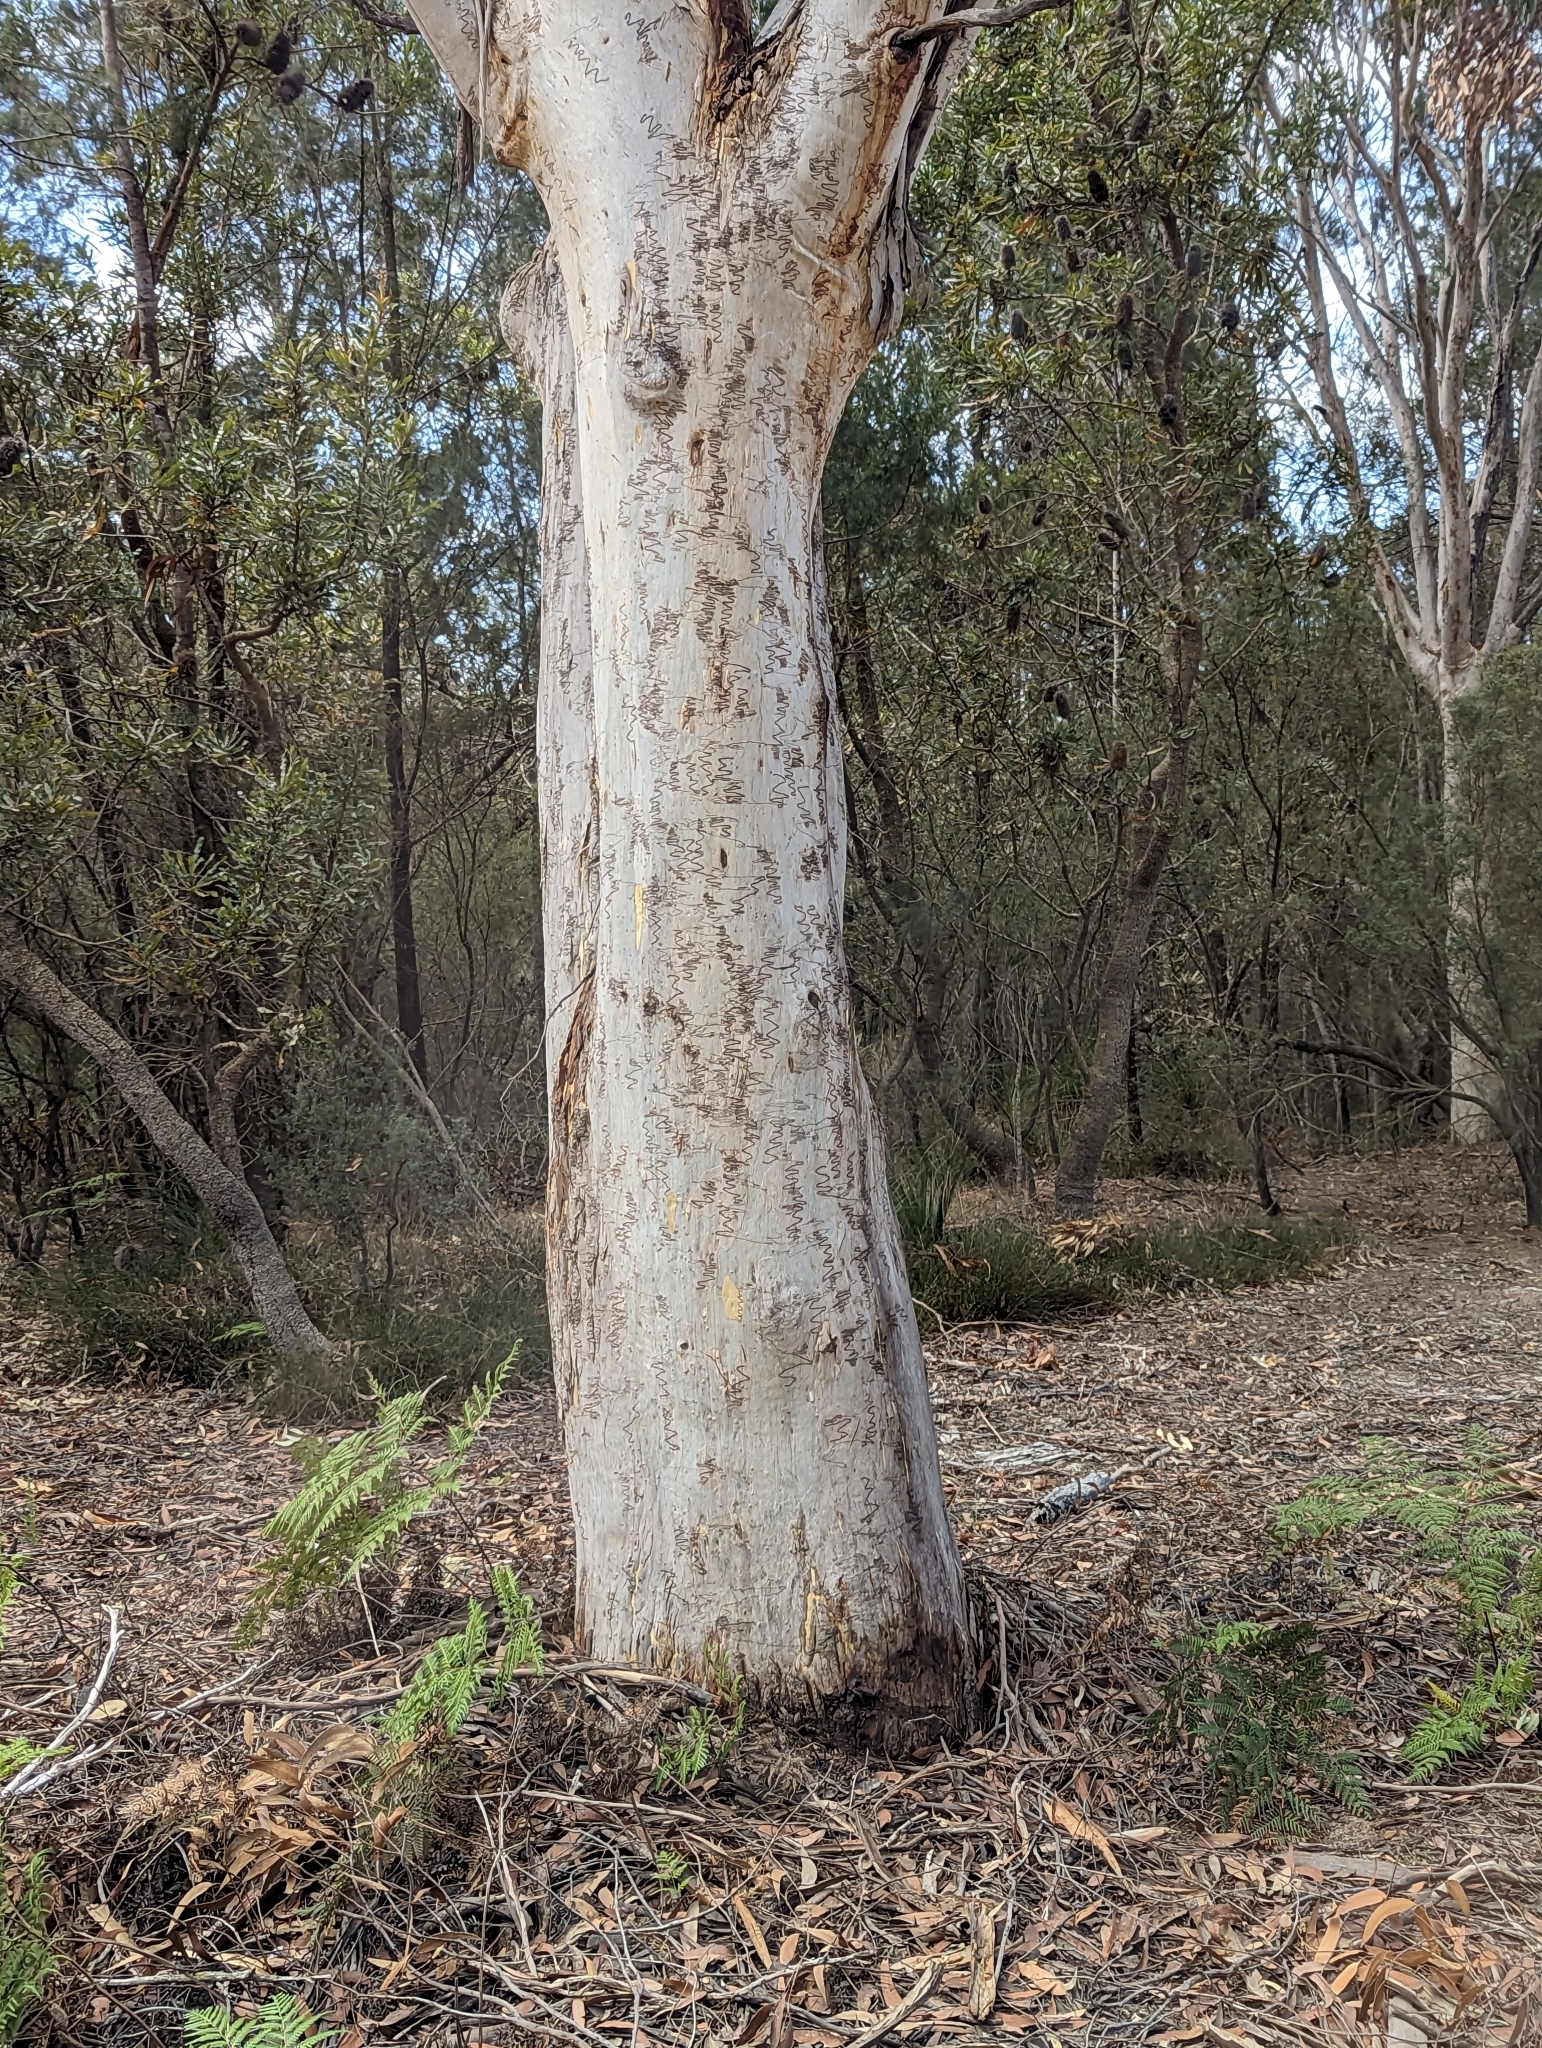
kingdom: Plantae
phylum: Tracheophyta
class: Magnoliopsida
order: Myrtales
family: Myrtaceae
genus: Eucalyptus
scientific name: Eucalyptus racemosa
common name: Scribbly gum
